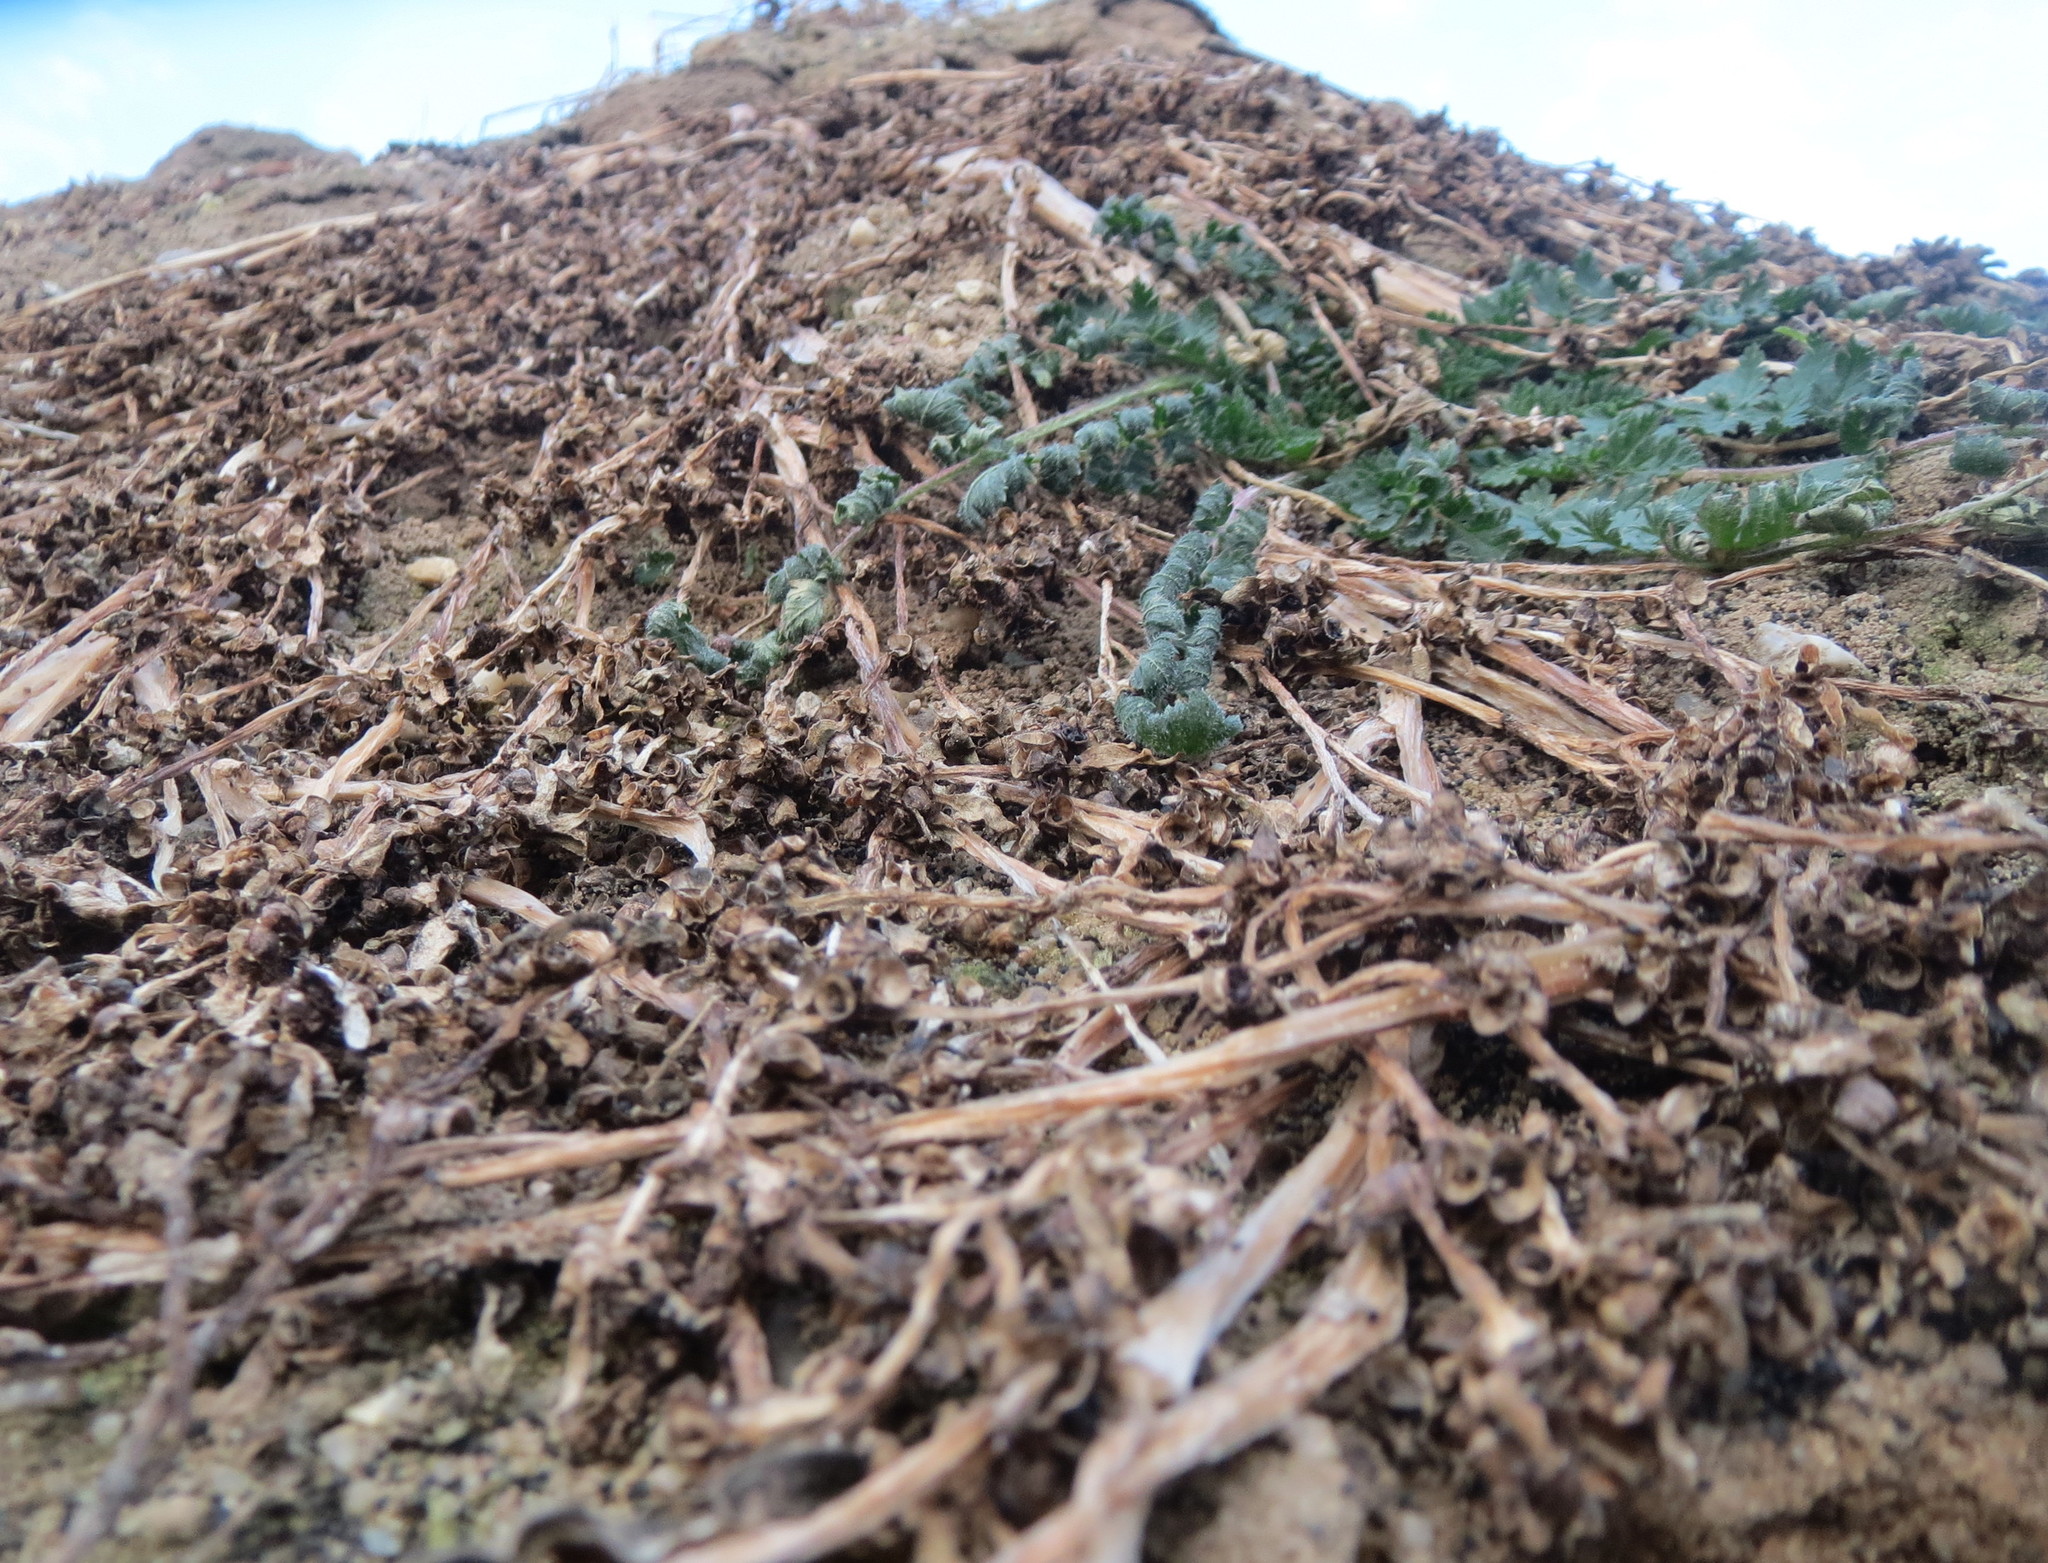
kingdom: Plantae
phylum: Tracheophyta
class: Magnoliopsida
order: Geraniales
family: Geraniaceae
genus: Erodium
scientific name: Erodium cicutarium
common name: Common stork's-bill
